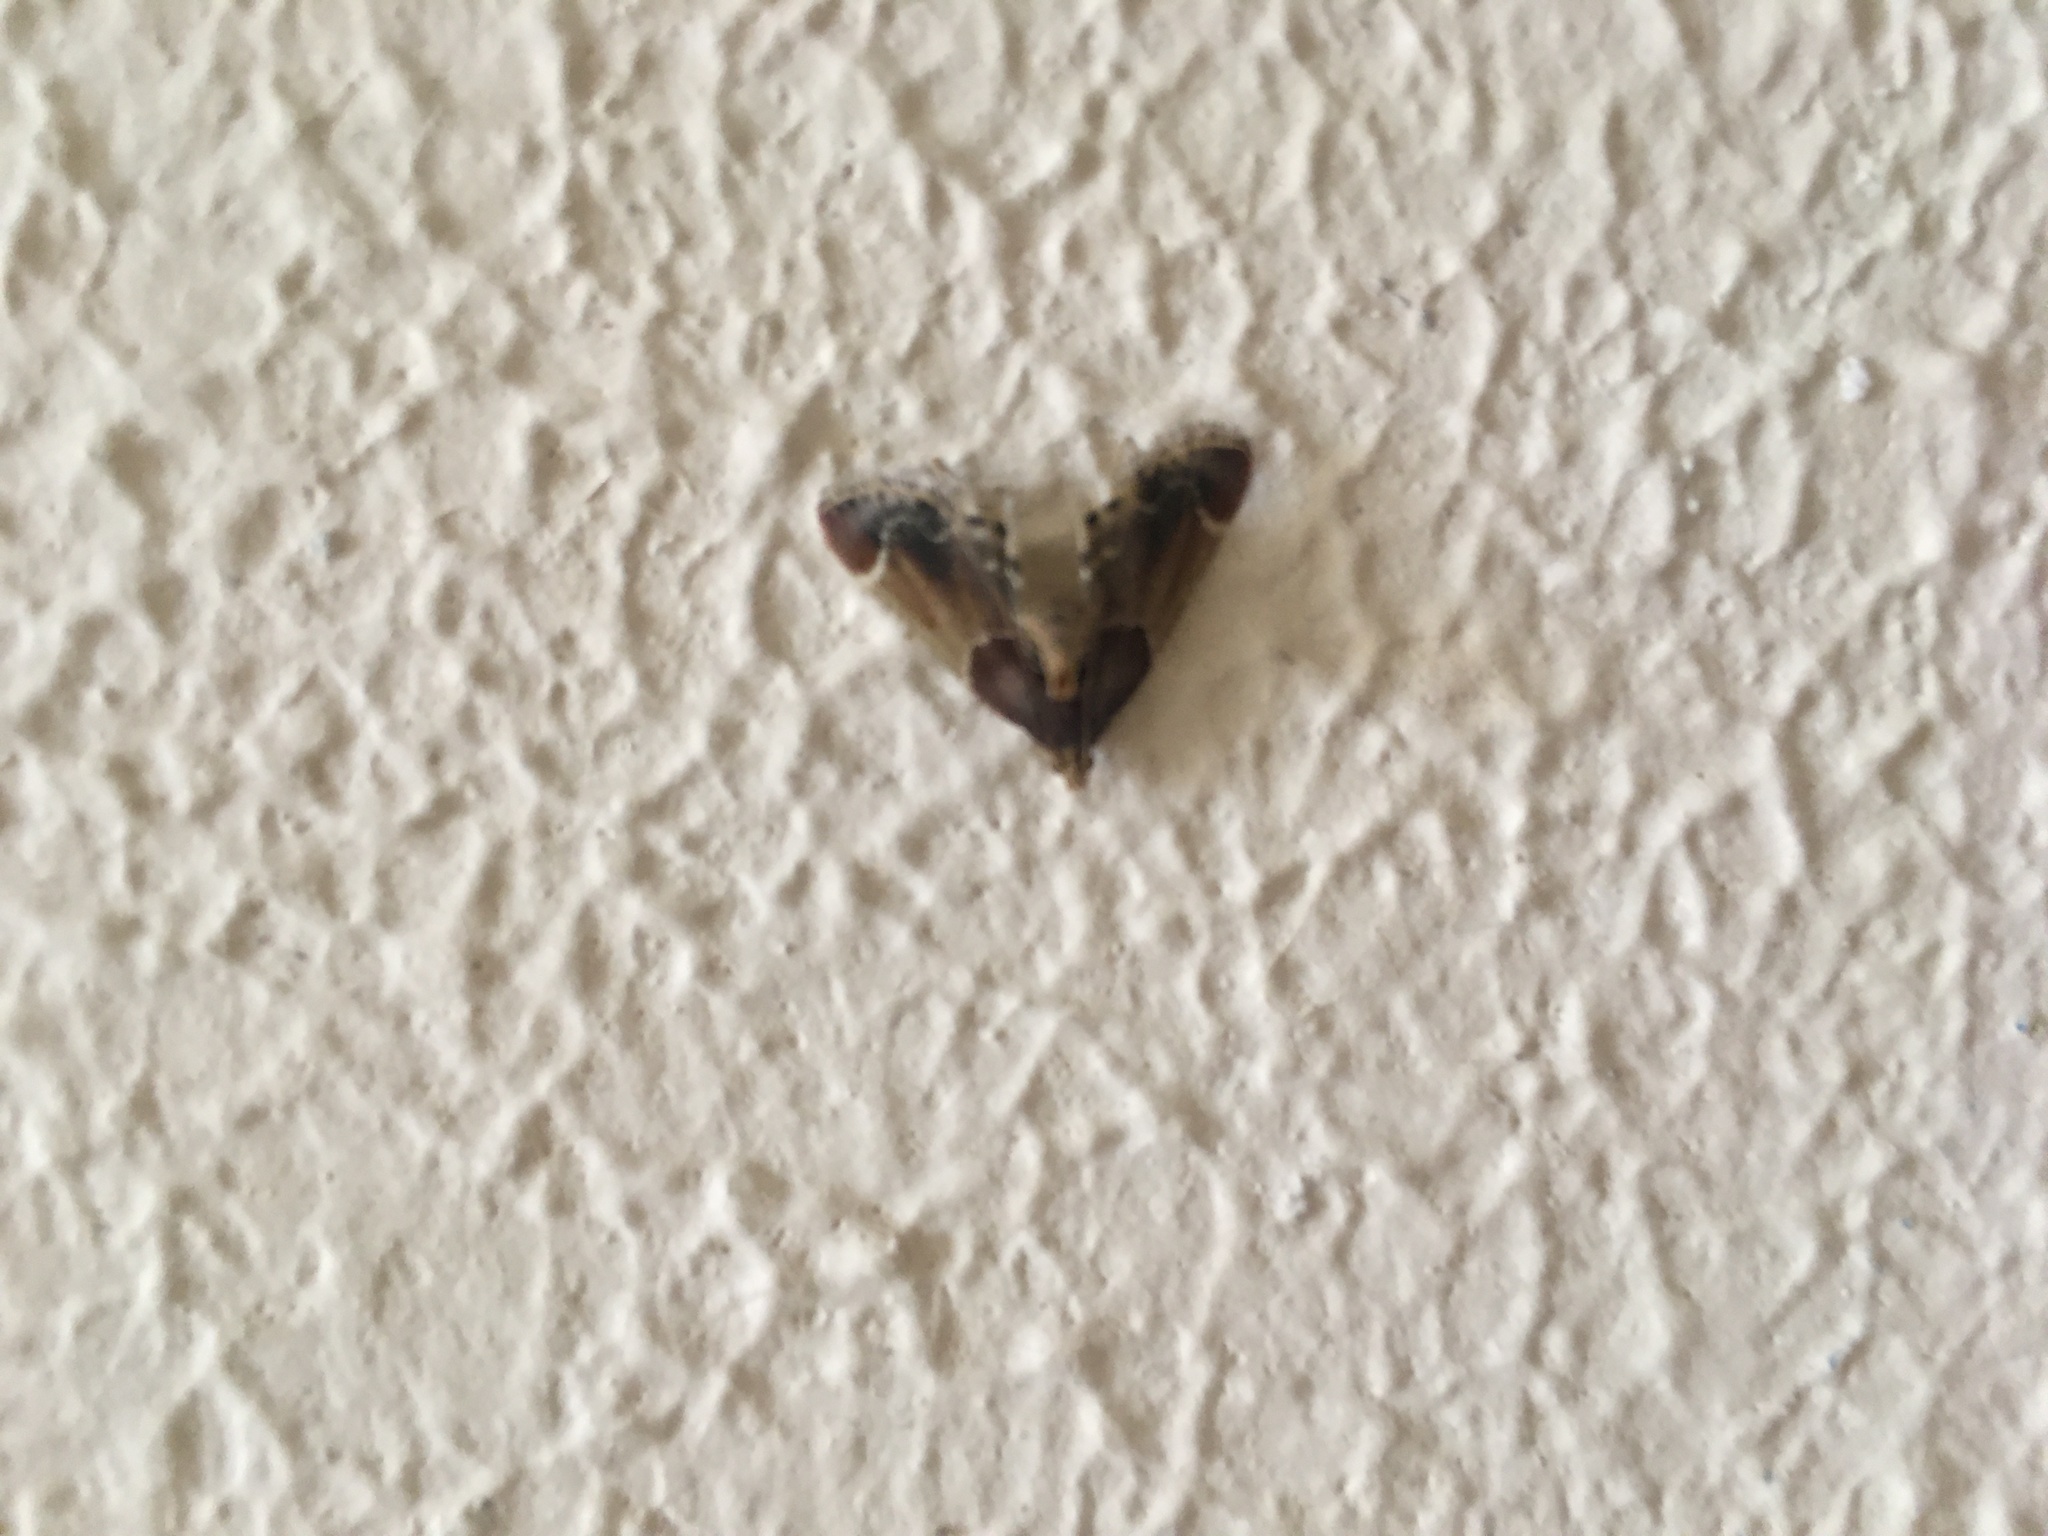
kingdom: Animalia
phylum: Arthropoda
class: Insecta
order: Lepidoptera
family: Pyralidae
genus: Pyralis
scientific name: Pyralis farinalis
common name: Meal moth
